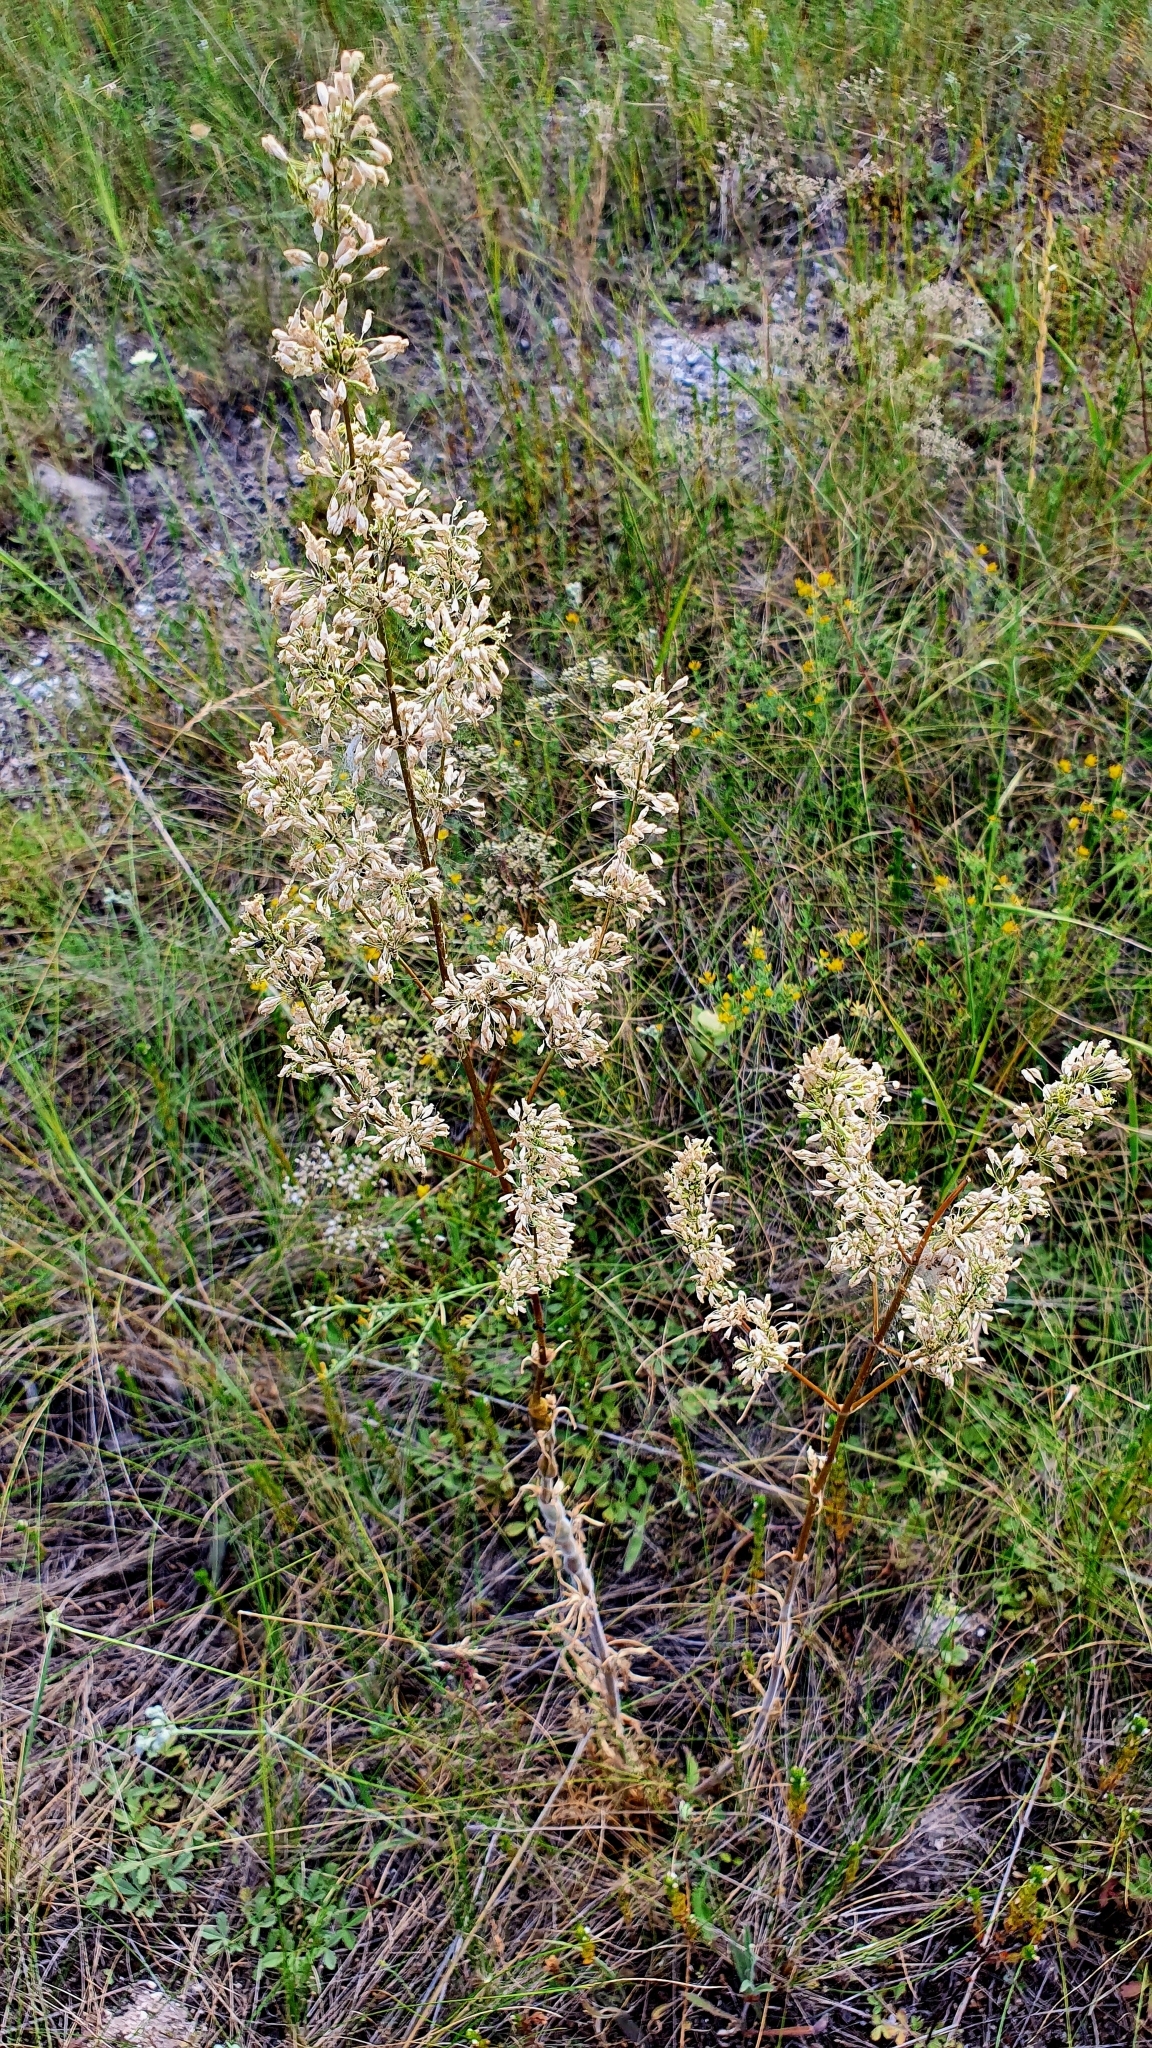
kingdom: Plantae
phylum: Tracheophyta
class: Magnoliopsida
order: Caryophyllales
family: Caryophyllaceae
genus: Silene
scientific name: Silene
